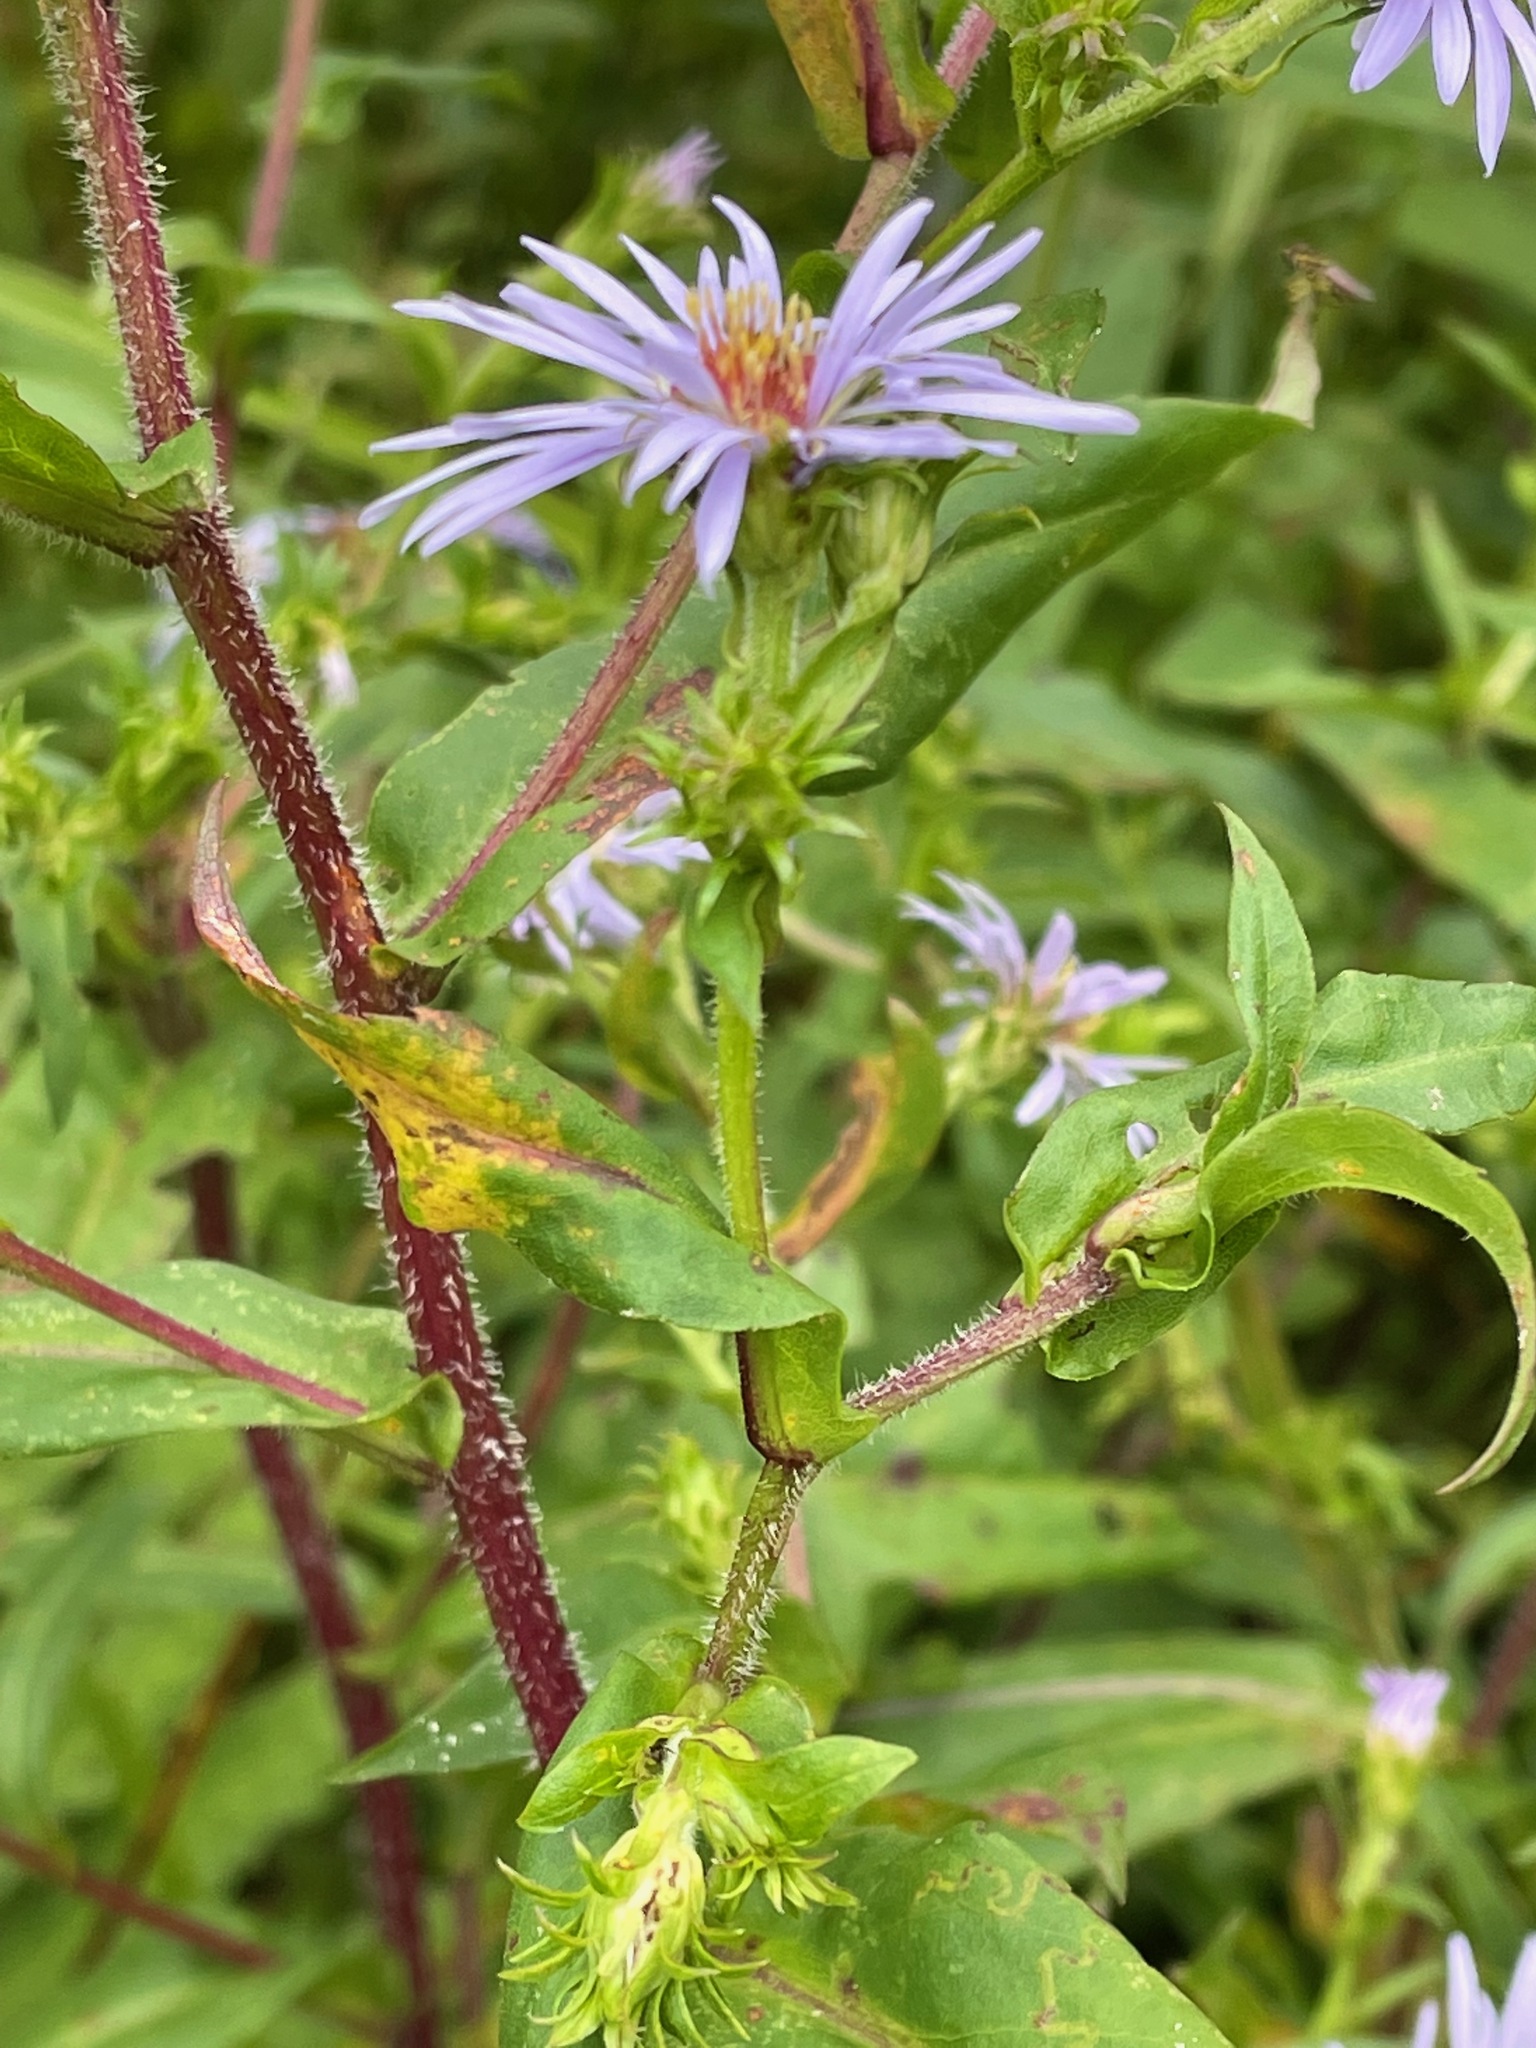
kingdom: Plantae
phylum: Tracheophyta
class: Magnoliopsida
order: Asterales
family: Asteraceae
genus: Symphyotrichum
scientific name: Symphyotrichum puniceum
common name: Bog aster
